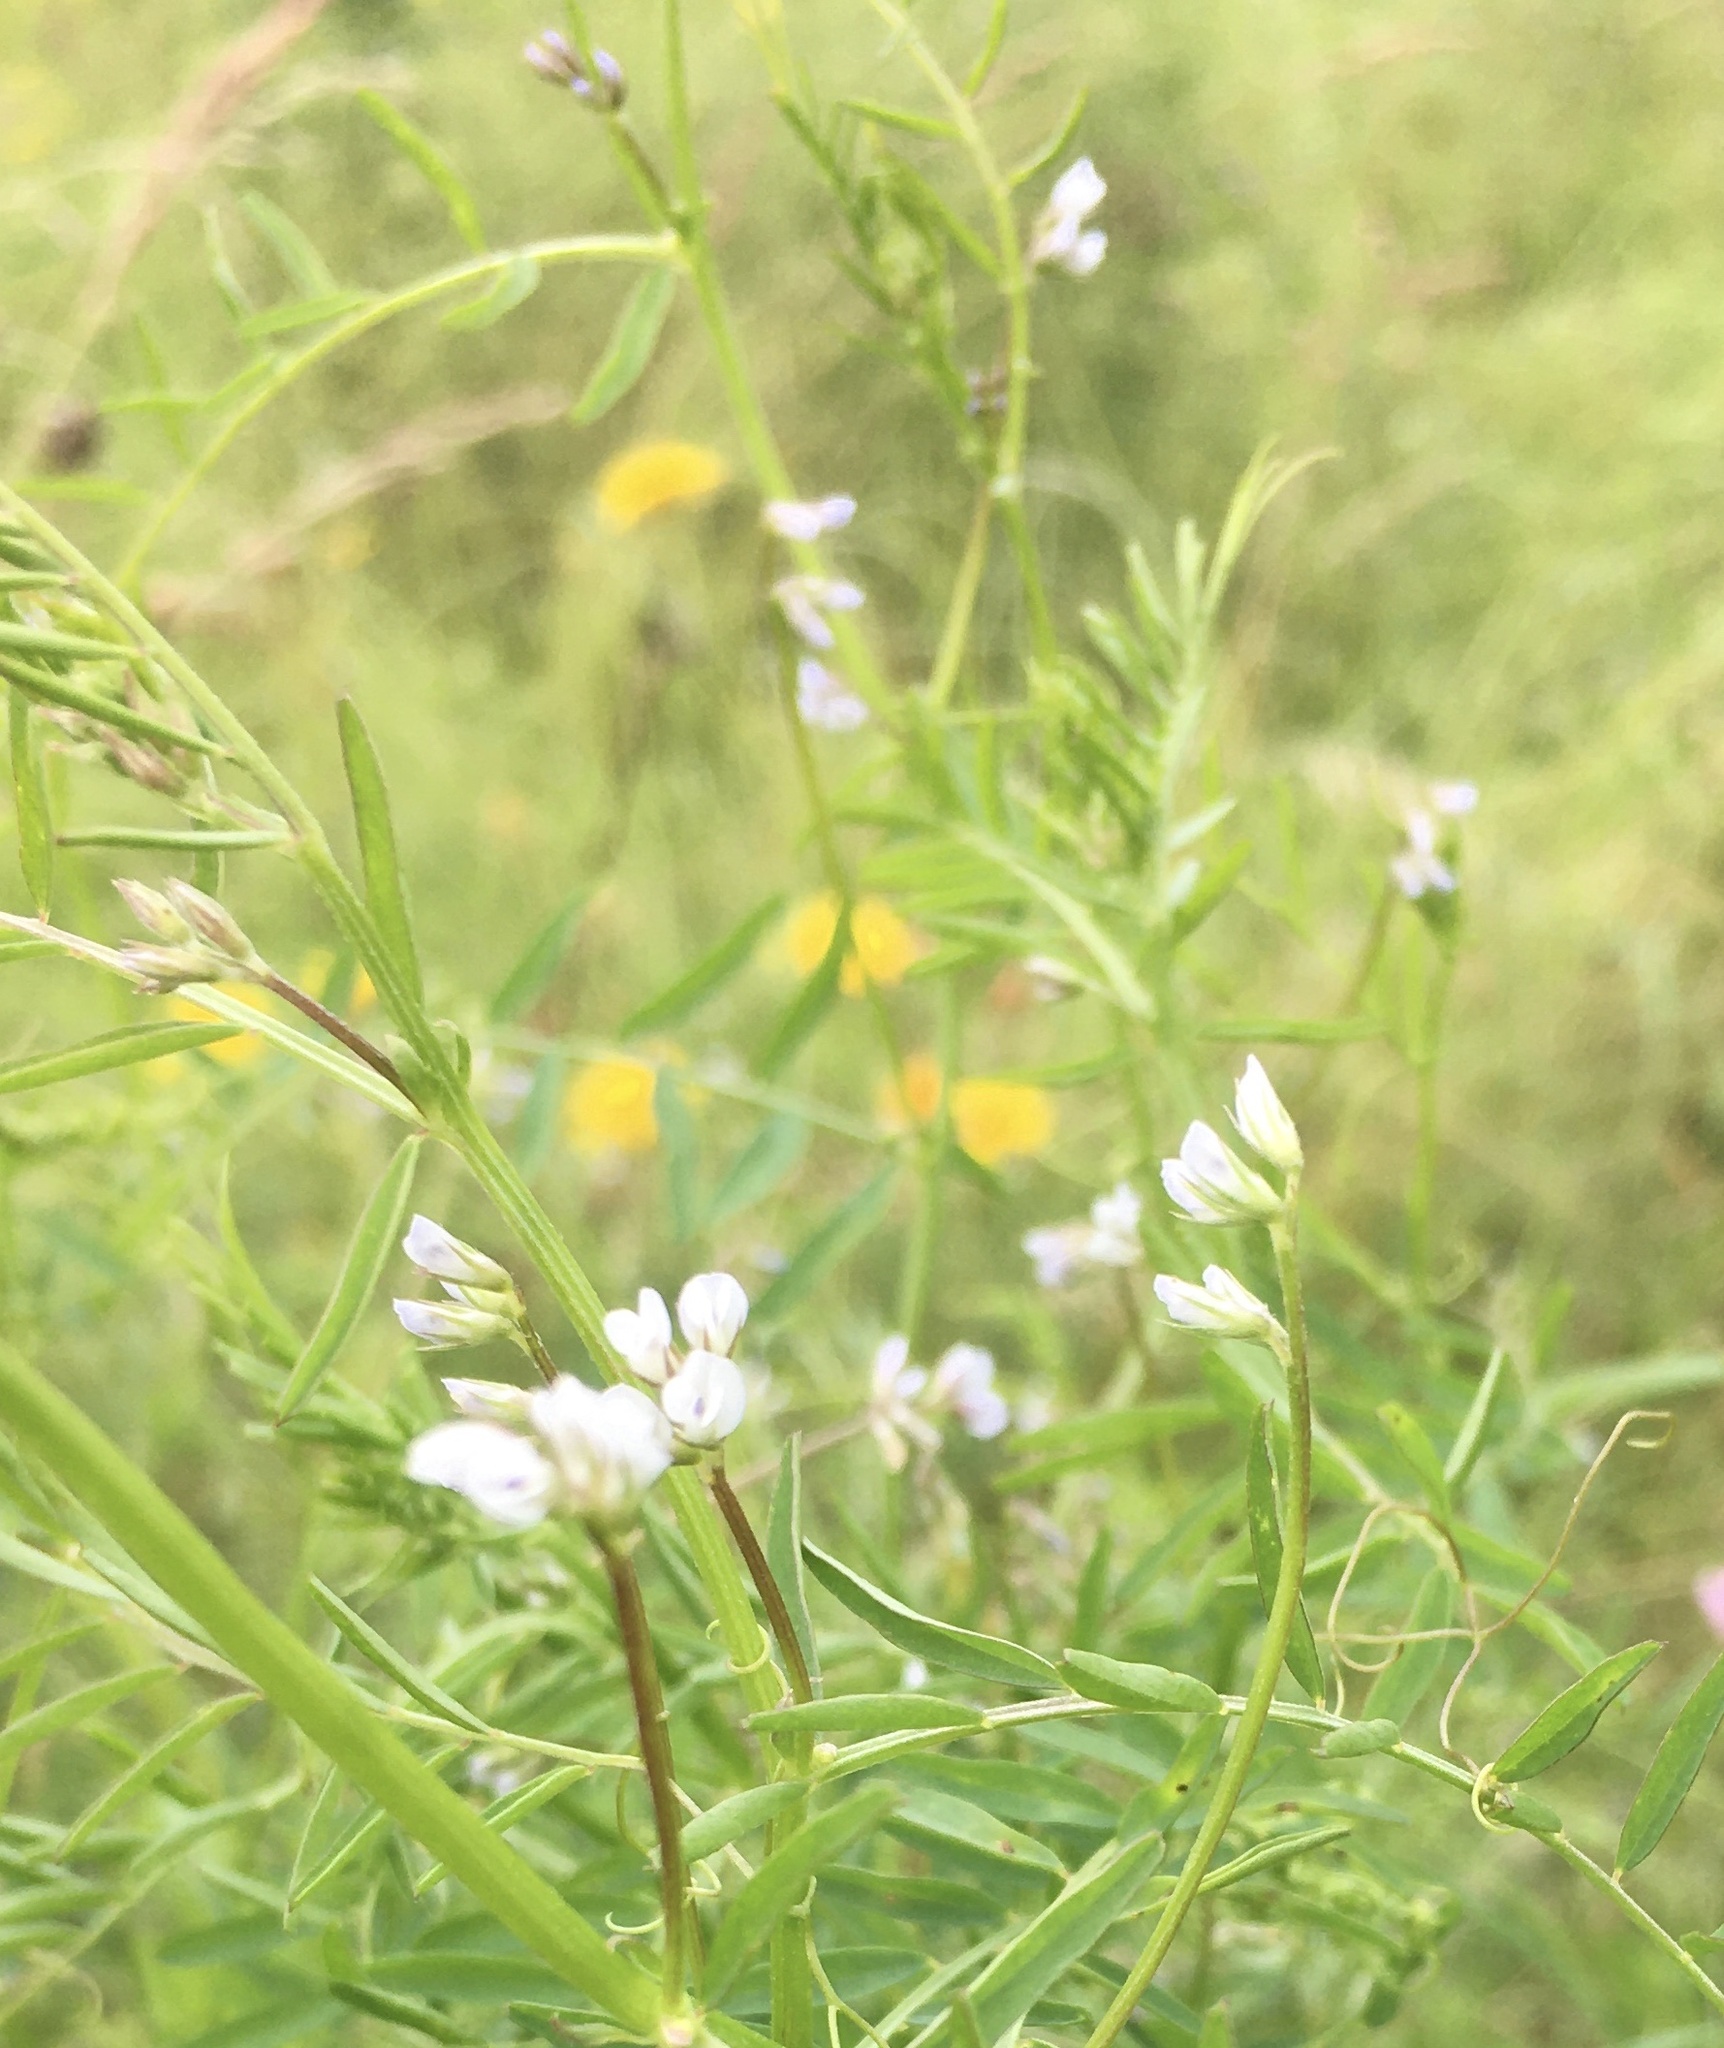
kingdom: Plantae
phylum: Tracheophyta
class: Magnoliopsida
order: Fabales
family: Fabaceae
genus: Vicia
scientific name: Vicia hirsuta
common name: Tiny vetch
